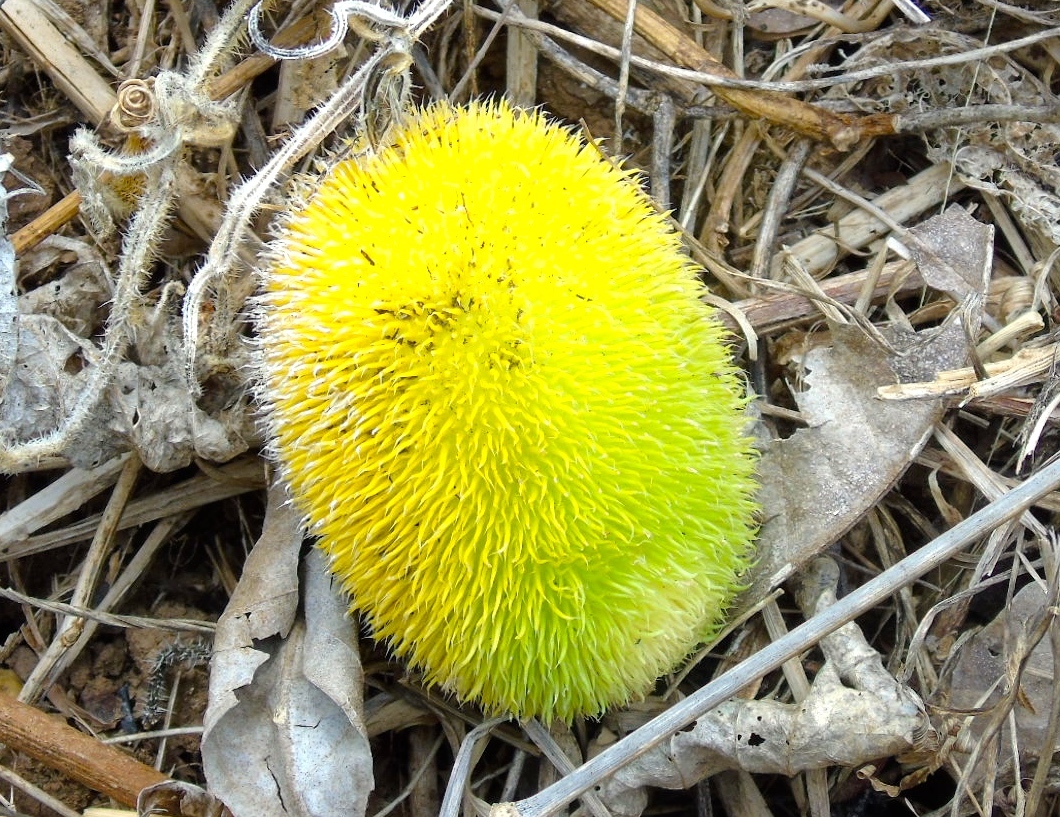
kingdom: Plantae
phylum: Tracheophyta
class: Magnoliopsida
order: Cucurbitales
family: Cucurbitaceae
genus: Cucumis
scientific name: Cucumis dipsaceus
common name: Hedgehog gourd
